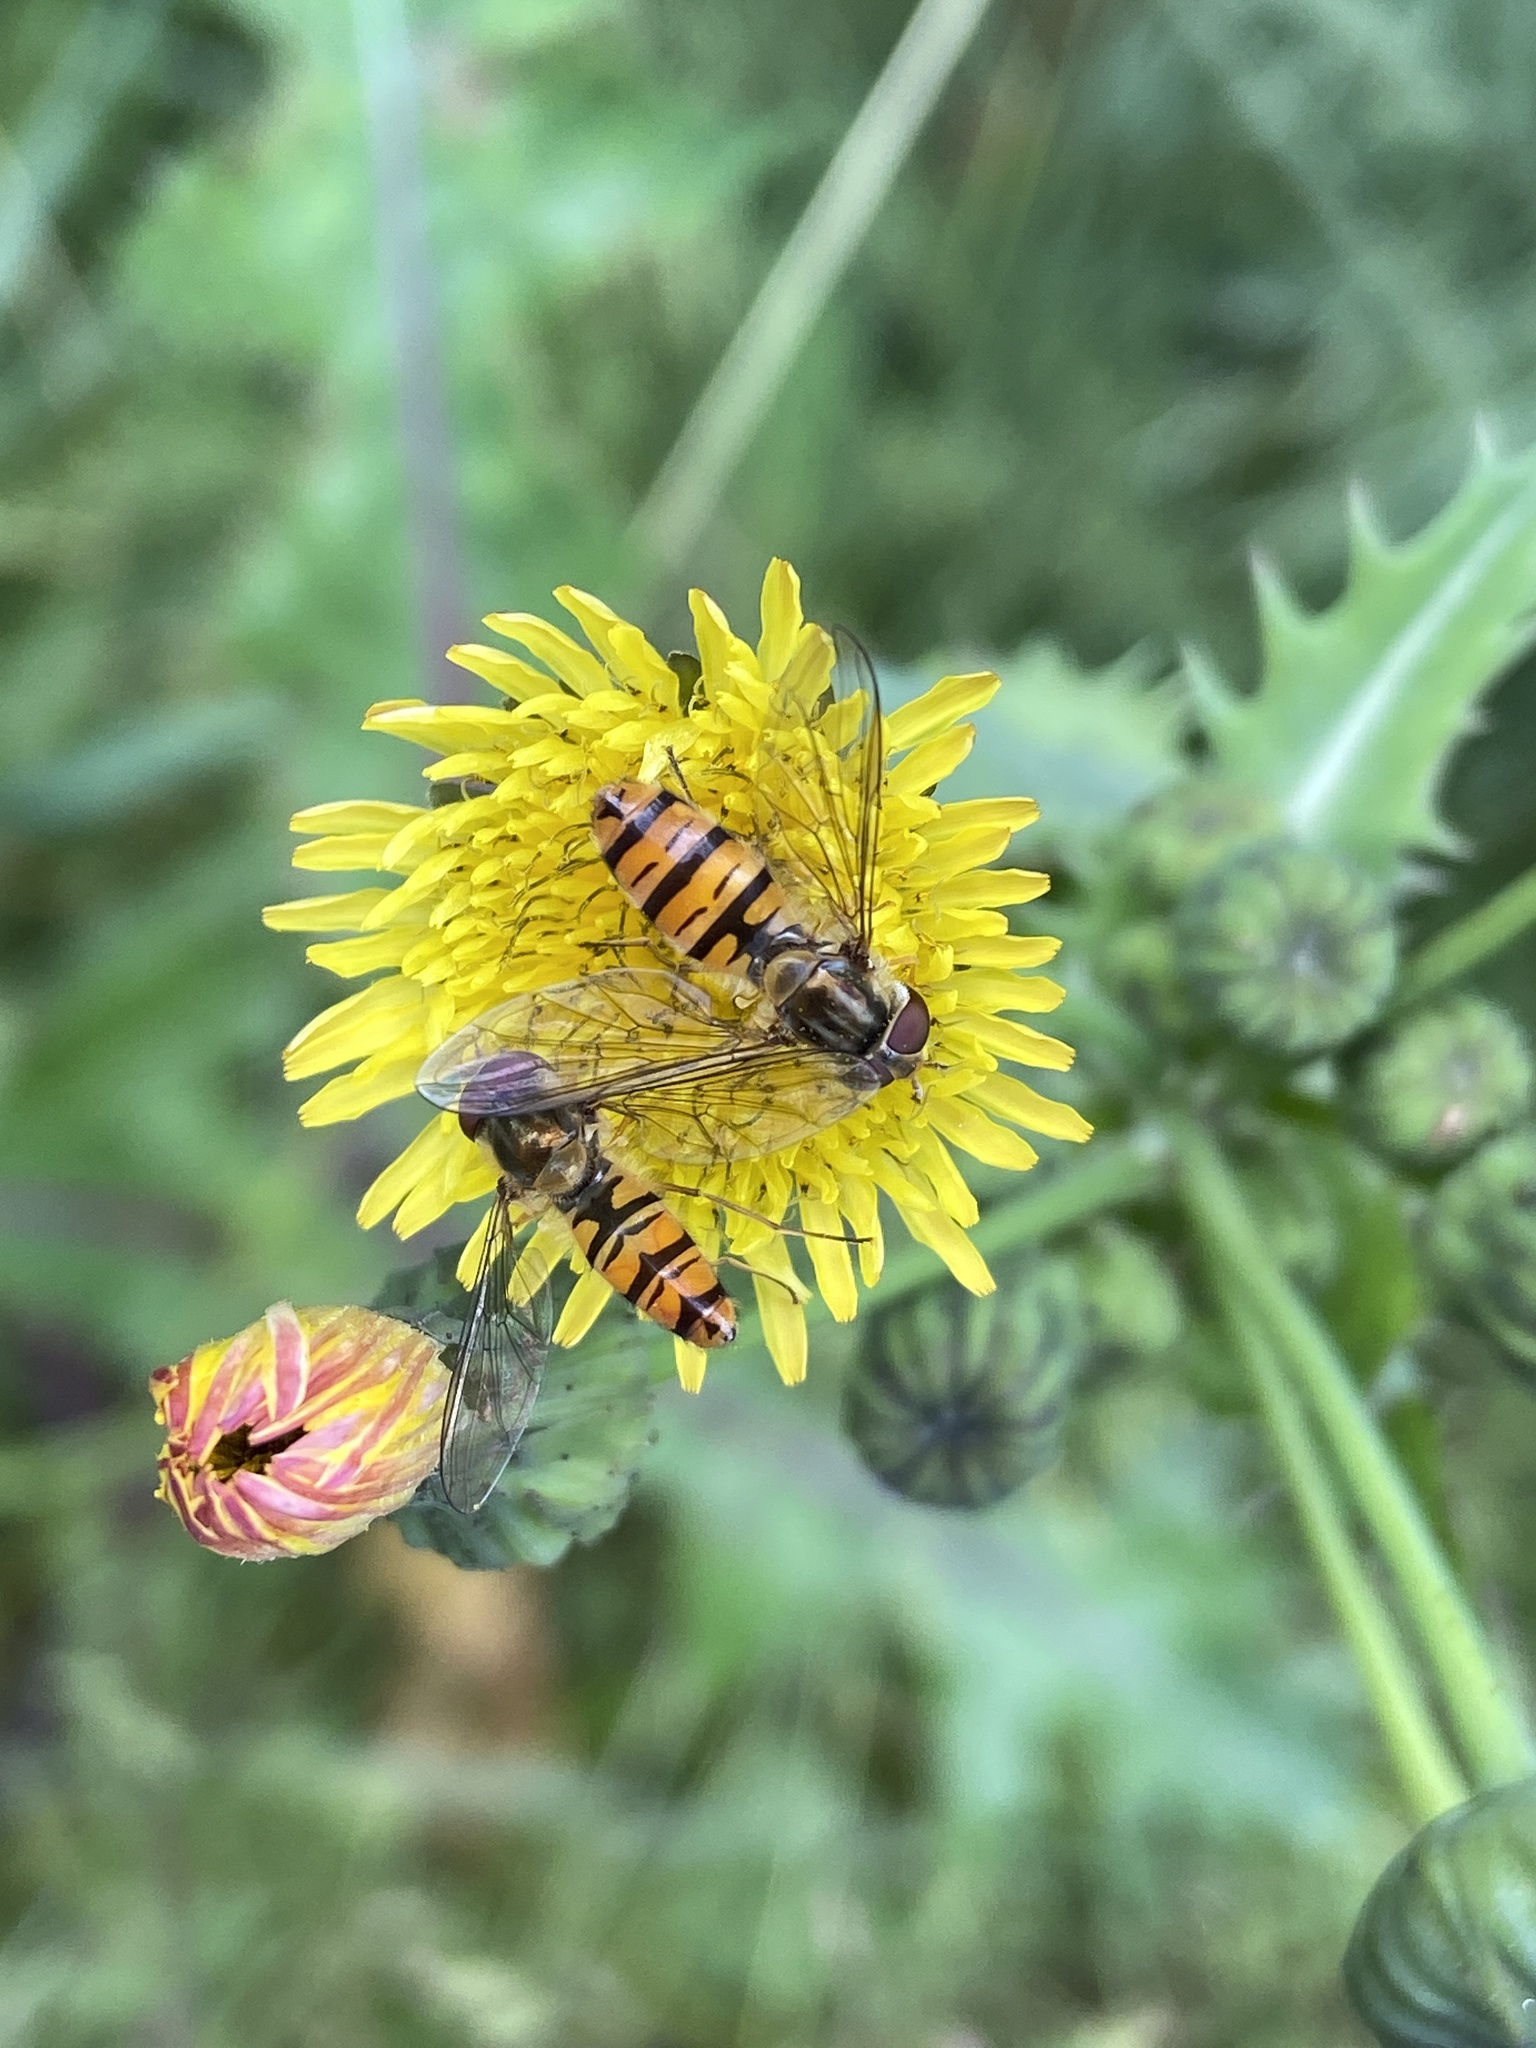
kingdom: Animalia
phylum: Arthropoda
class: Insecta
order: Diptera
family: Syrphidae
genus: Episyrphus
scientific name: Episyrphus balteatus
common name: Marmalade hoverfly
